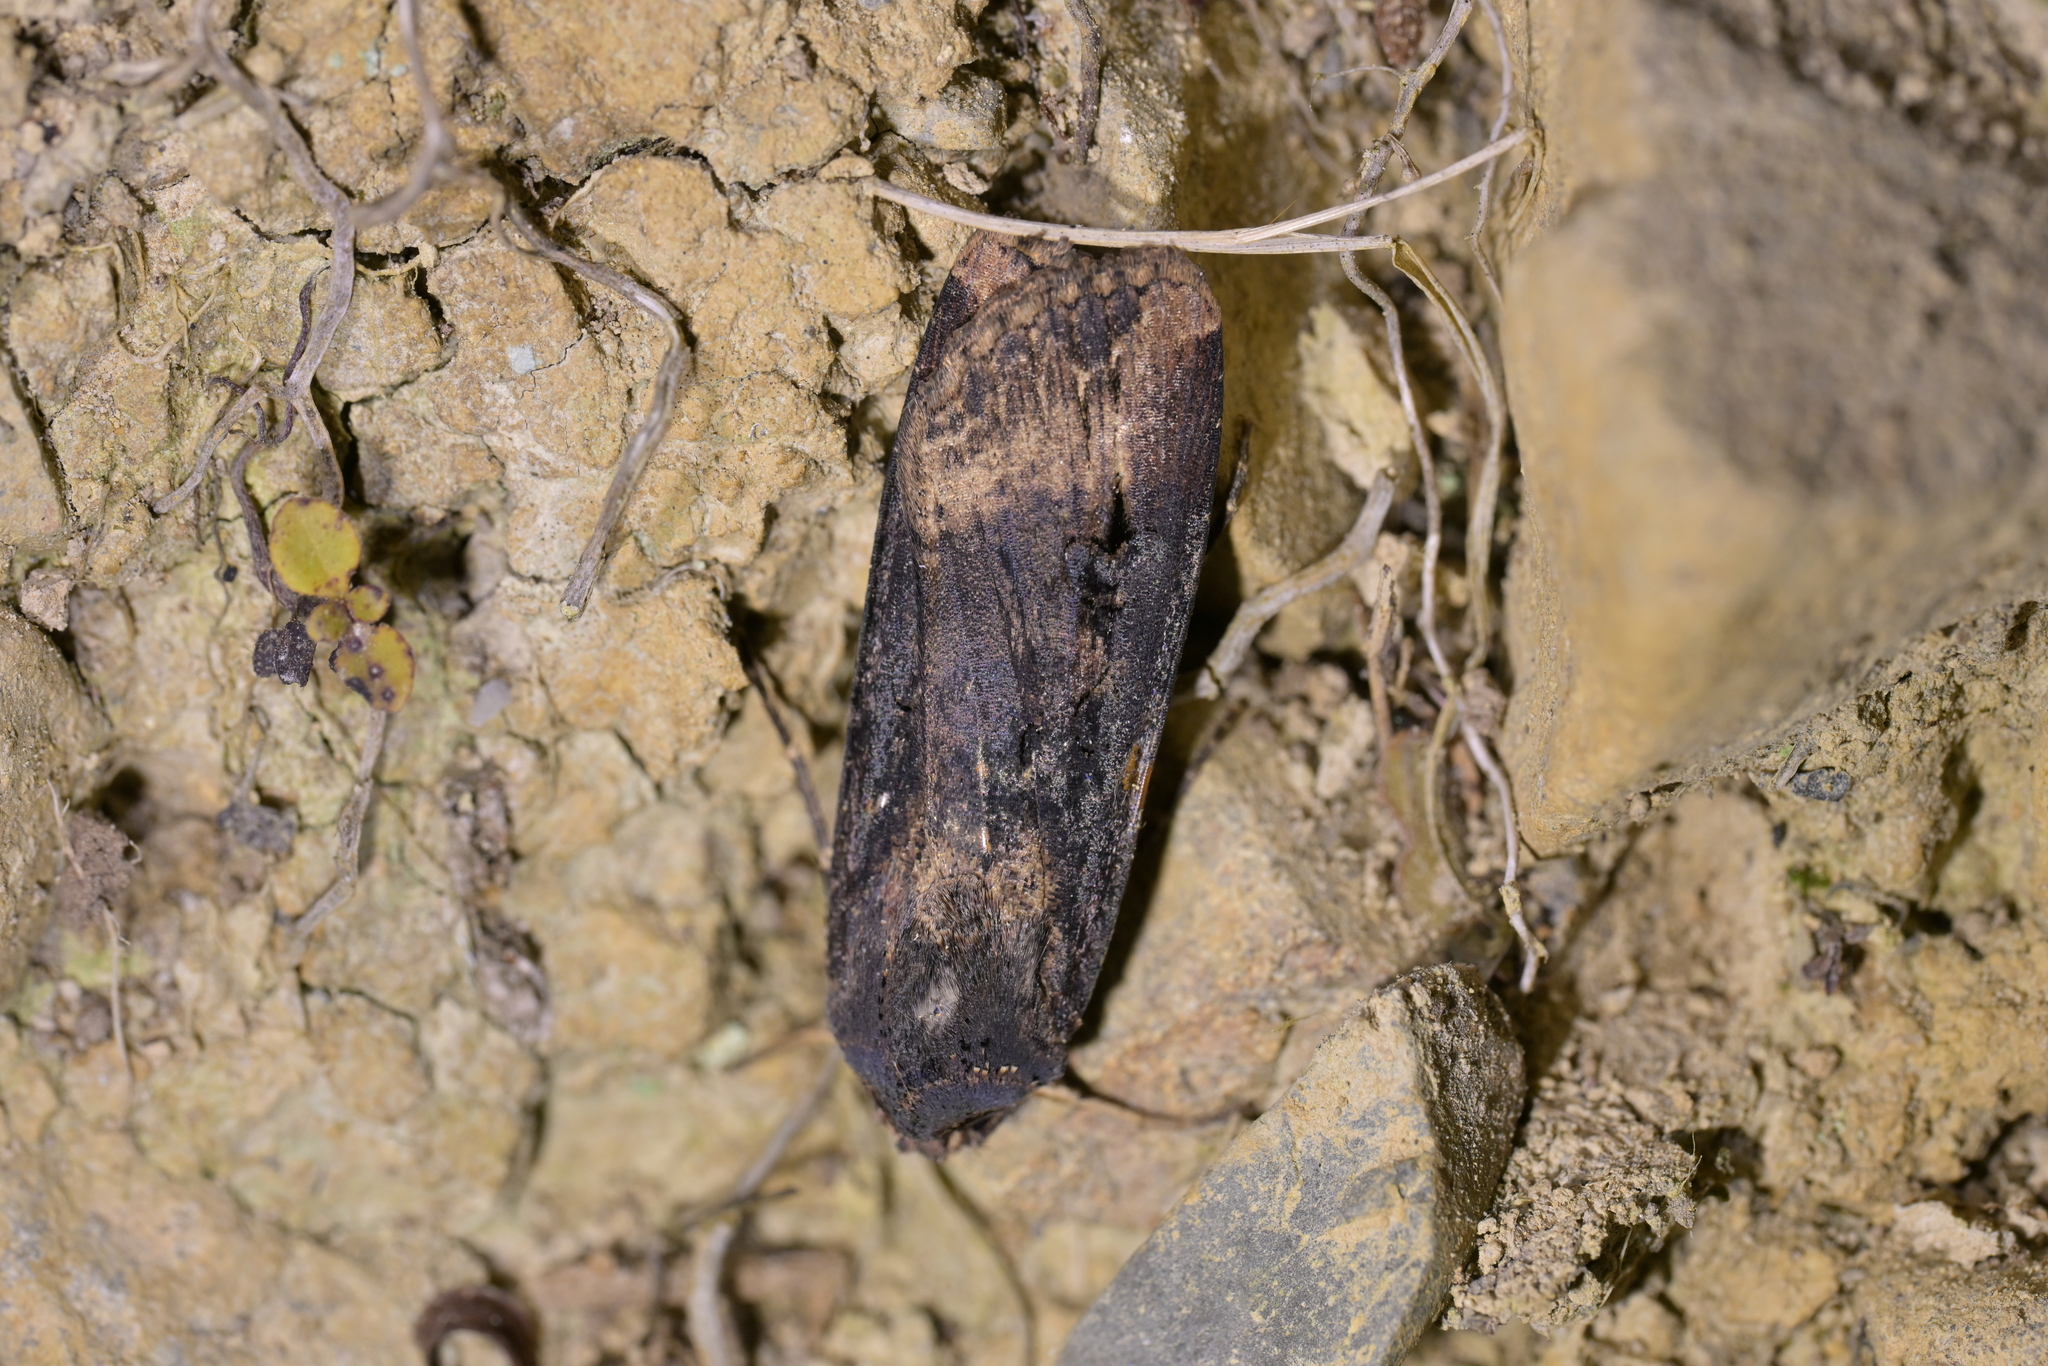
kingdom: Animalia
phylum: Arthropoda
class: Insecta
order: Lepidoptera
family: Noctuidae
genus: Agrotis
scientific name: Agrotis ipsilon
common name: Dark sword-grass
